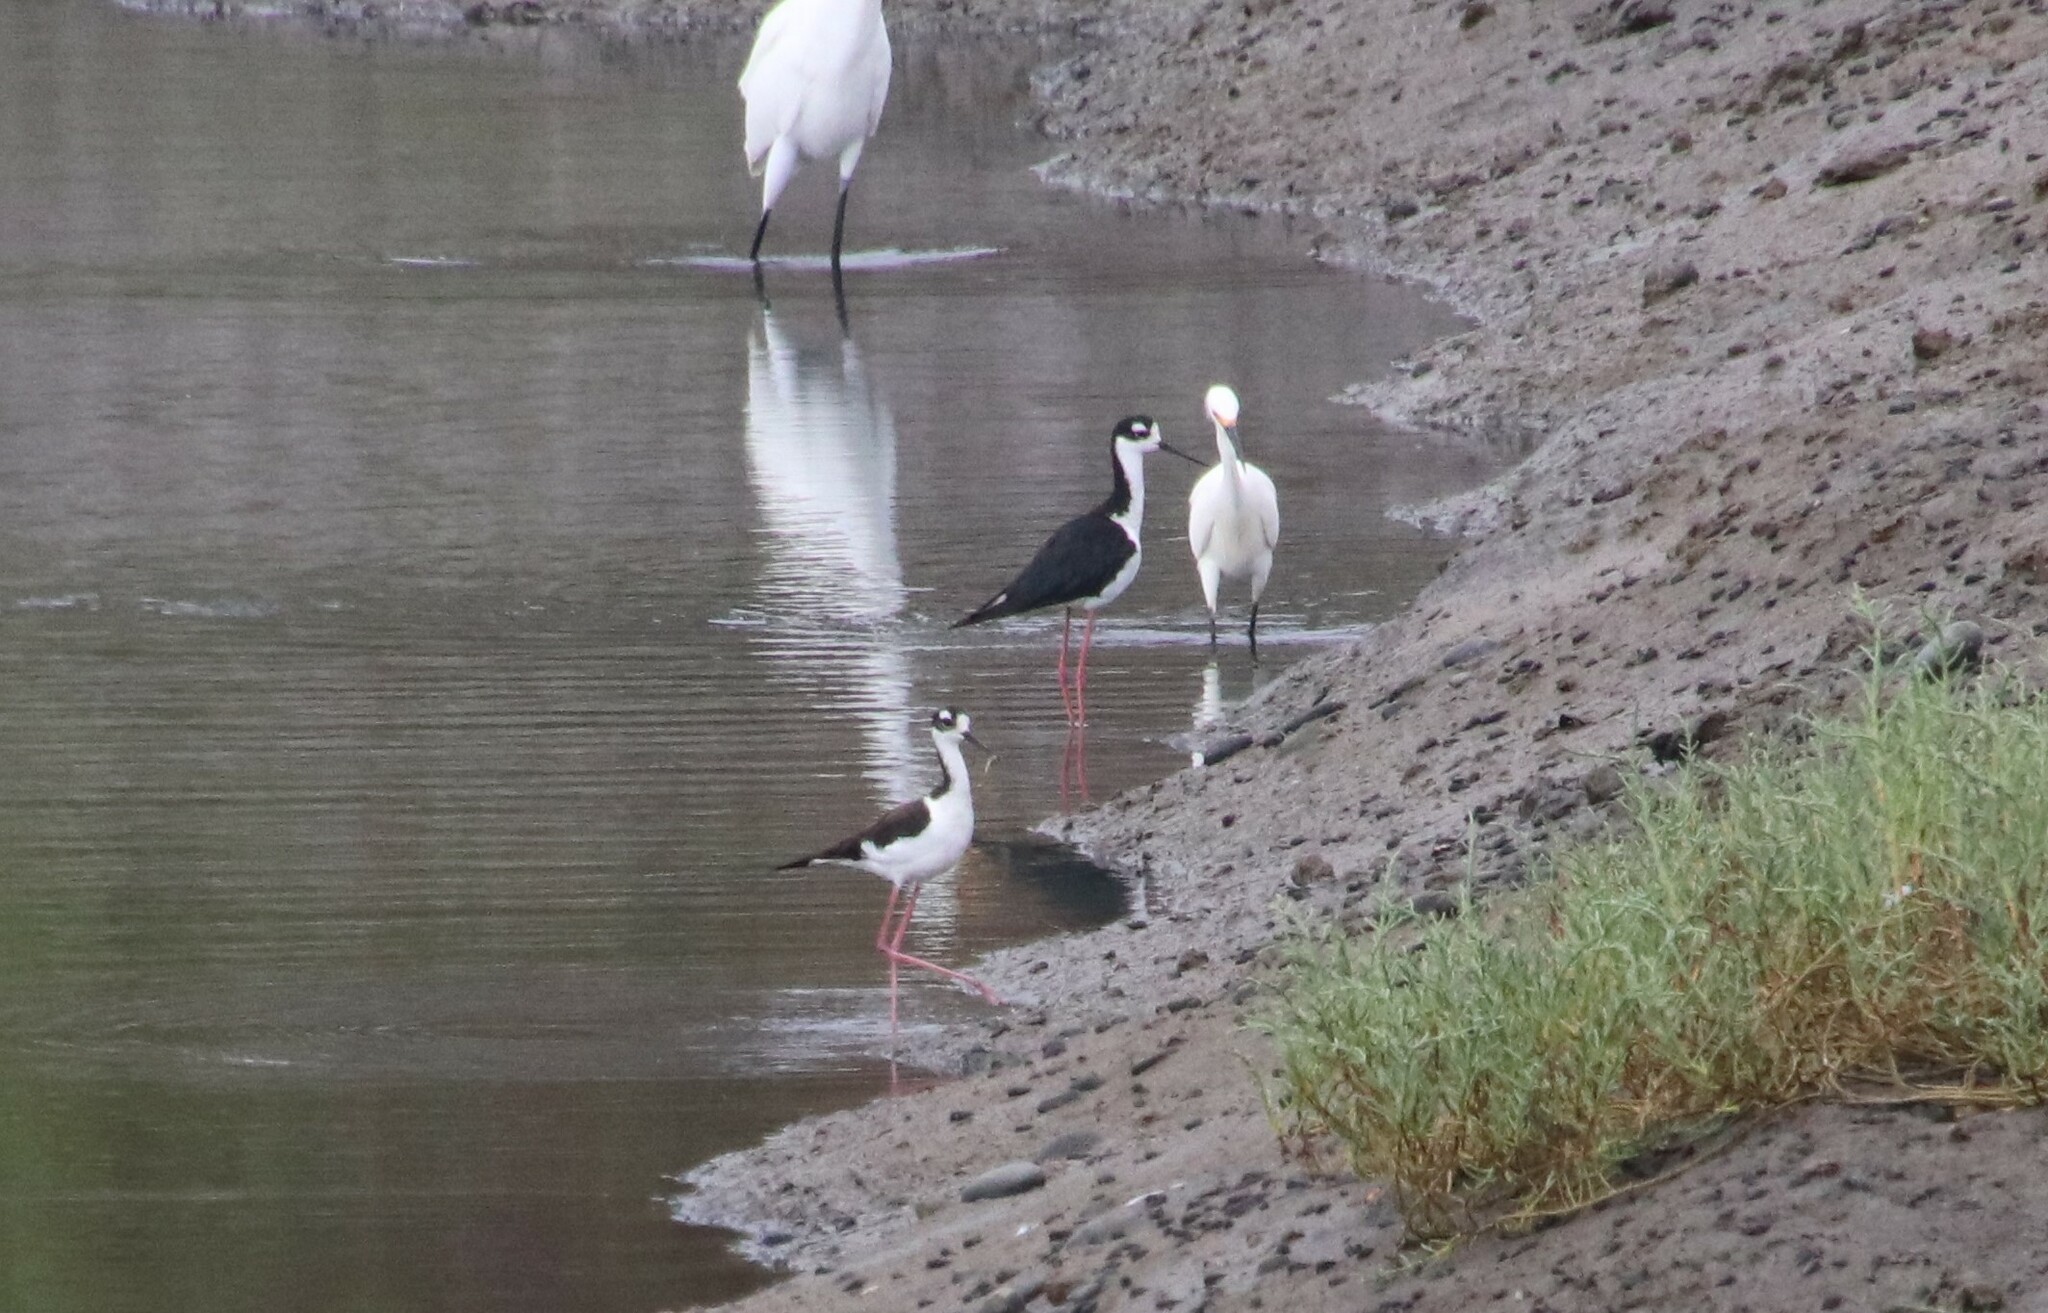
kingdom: Animalia
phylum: Chordata
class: Aves
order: Charadriiformes
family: Recurvirostridae
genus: Himantopus
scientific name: Himantopus mexicanus
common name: Black-necked stilt
